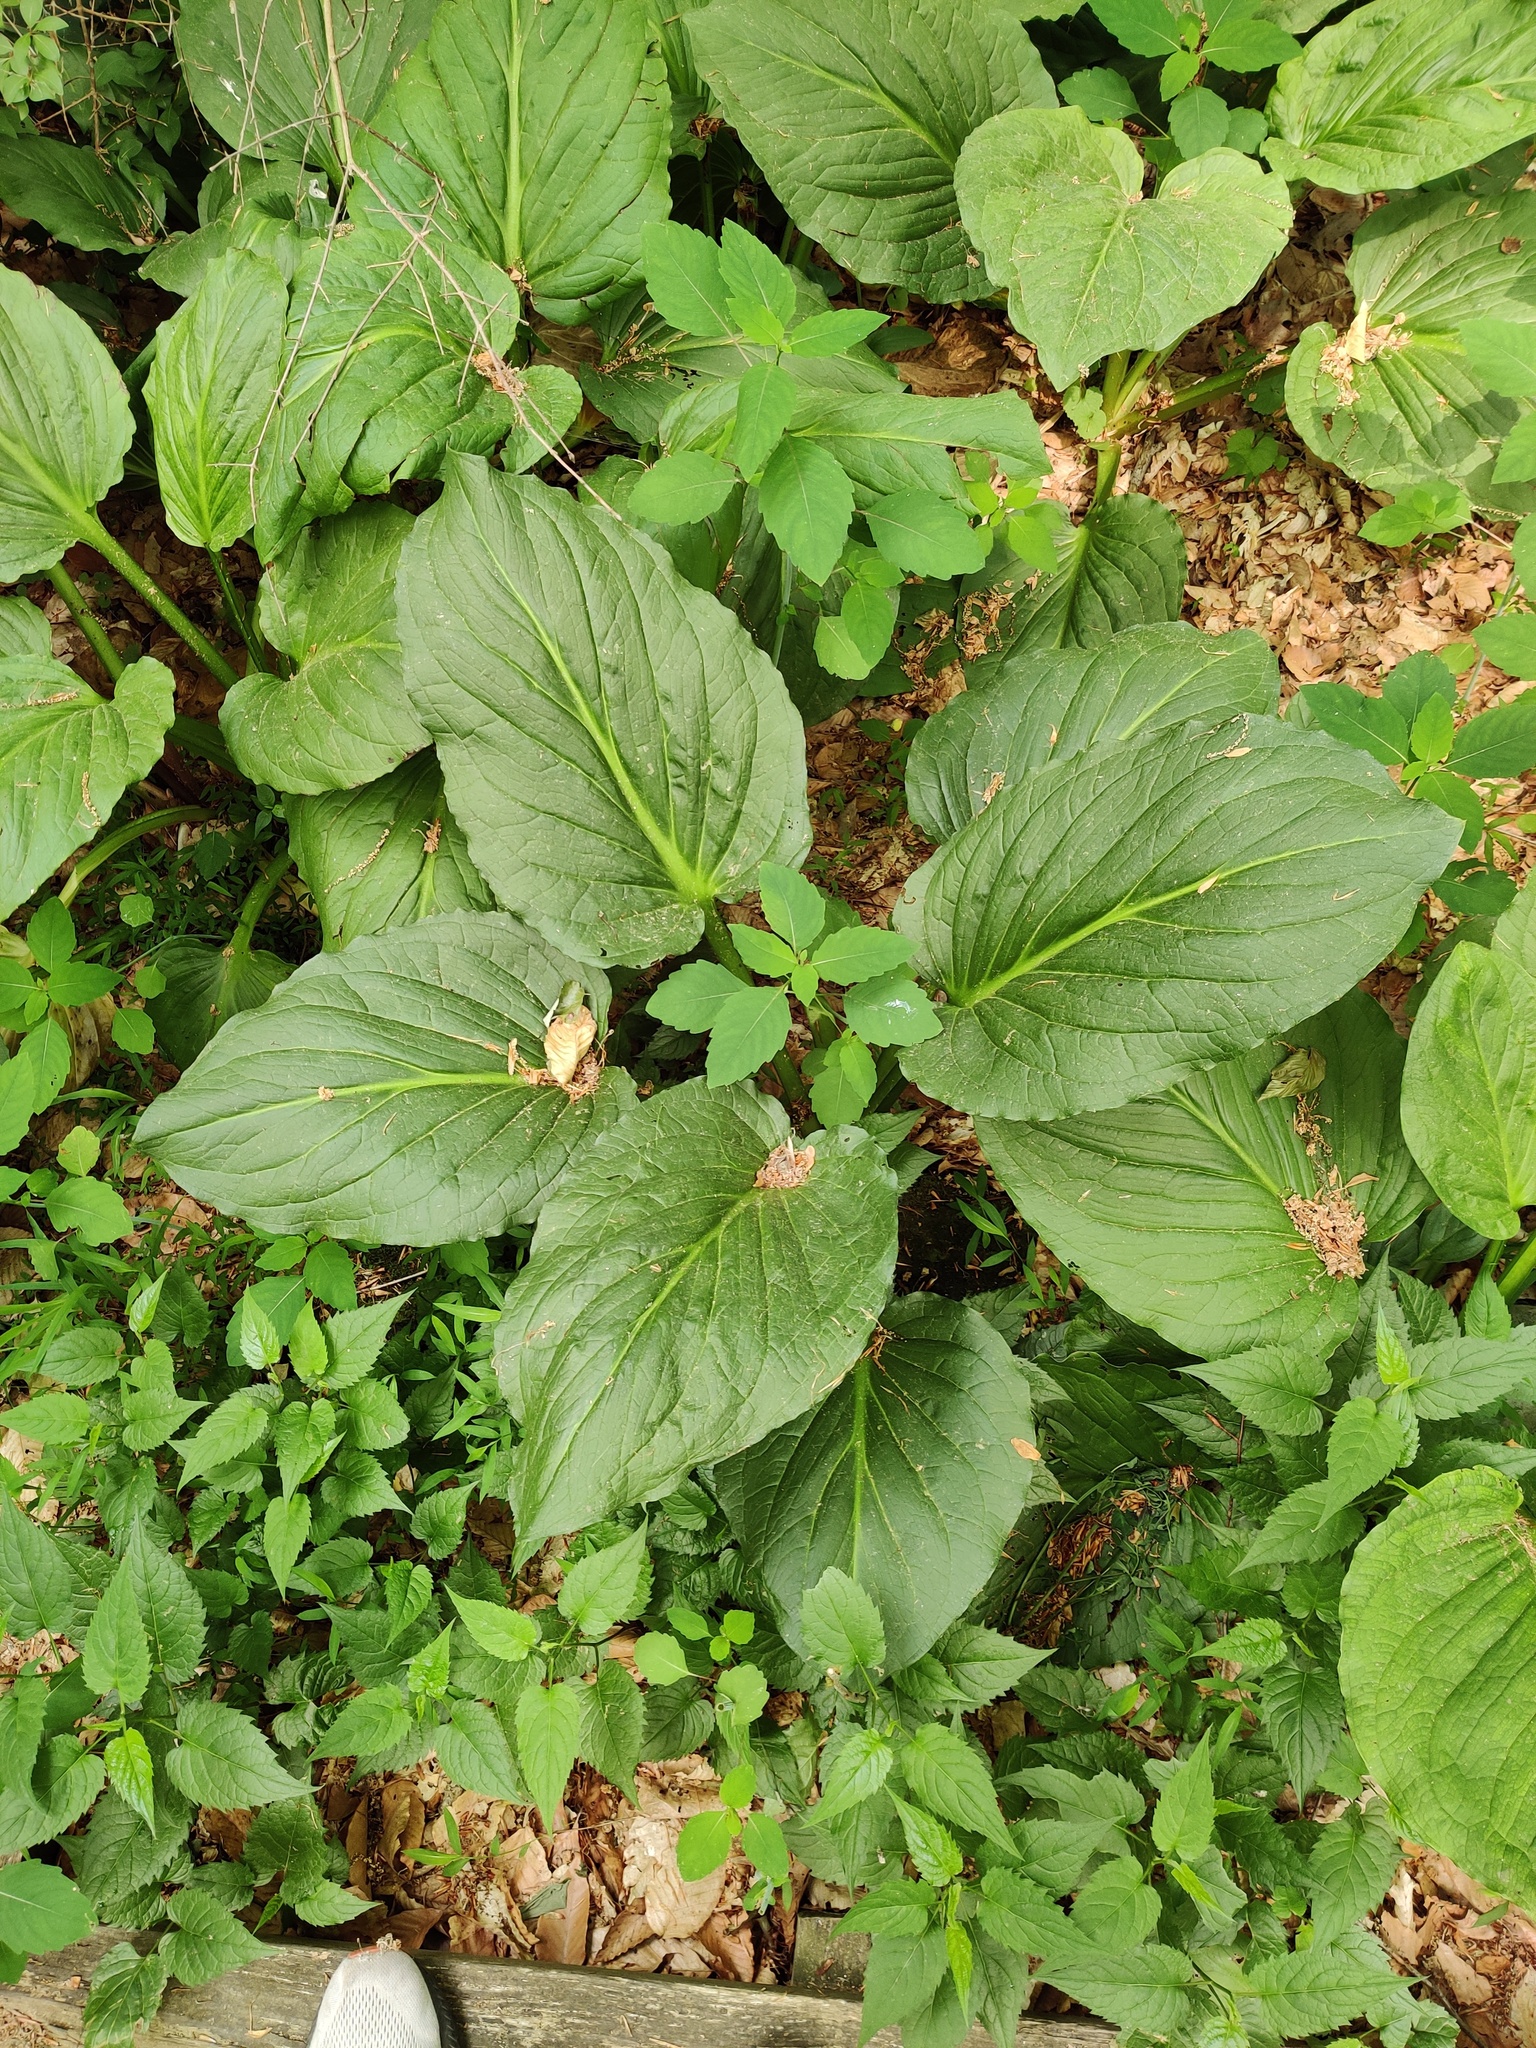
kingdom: Plantae
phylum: Tracheophyta
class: Liliopsida
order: Alismatales
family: Araceae
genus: Symplocarpus
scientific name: Symplocarpus foetidus
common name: Eastern skunk cabbage
